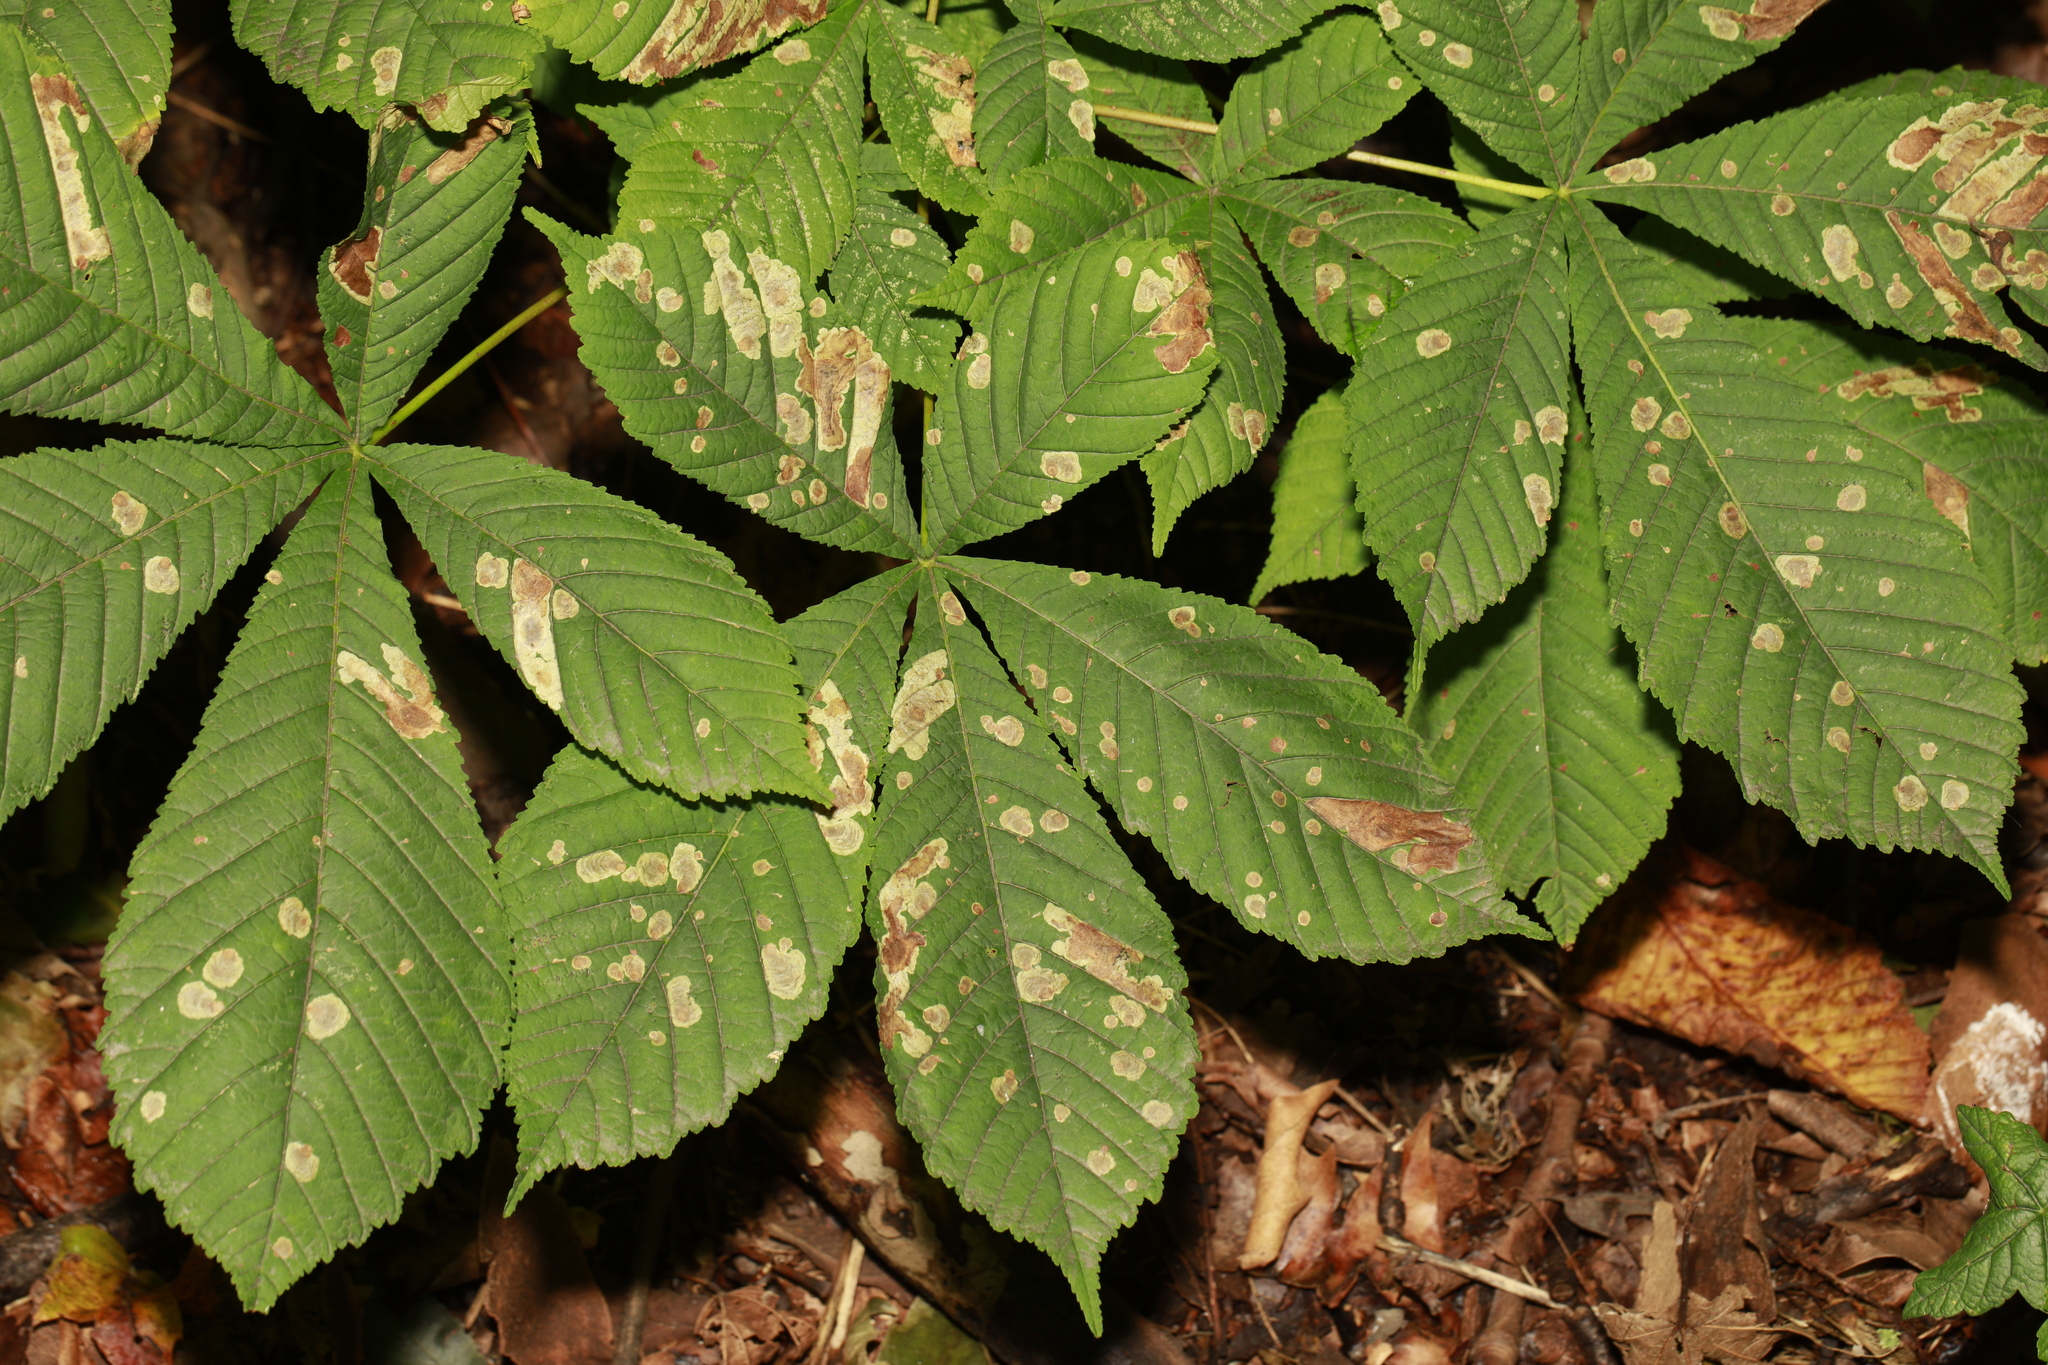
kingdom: Animalia
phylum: Arthropoda
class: Insecta
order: Lepidoptera
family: Gracillariidae
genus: Cameraria
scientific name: Cameraria ohridella
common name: Horse-chestnut leaf-miner
